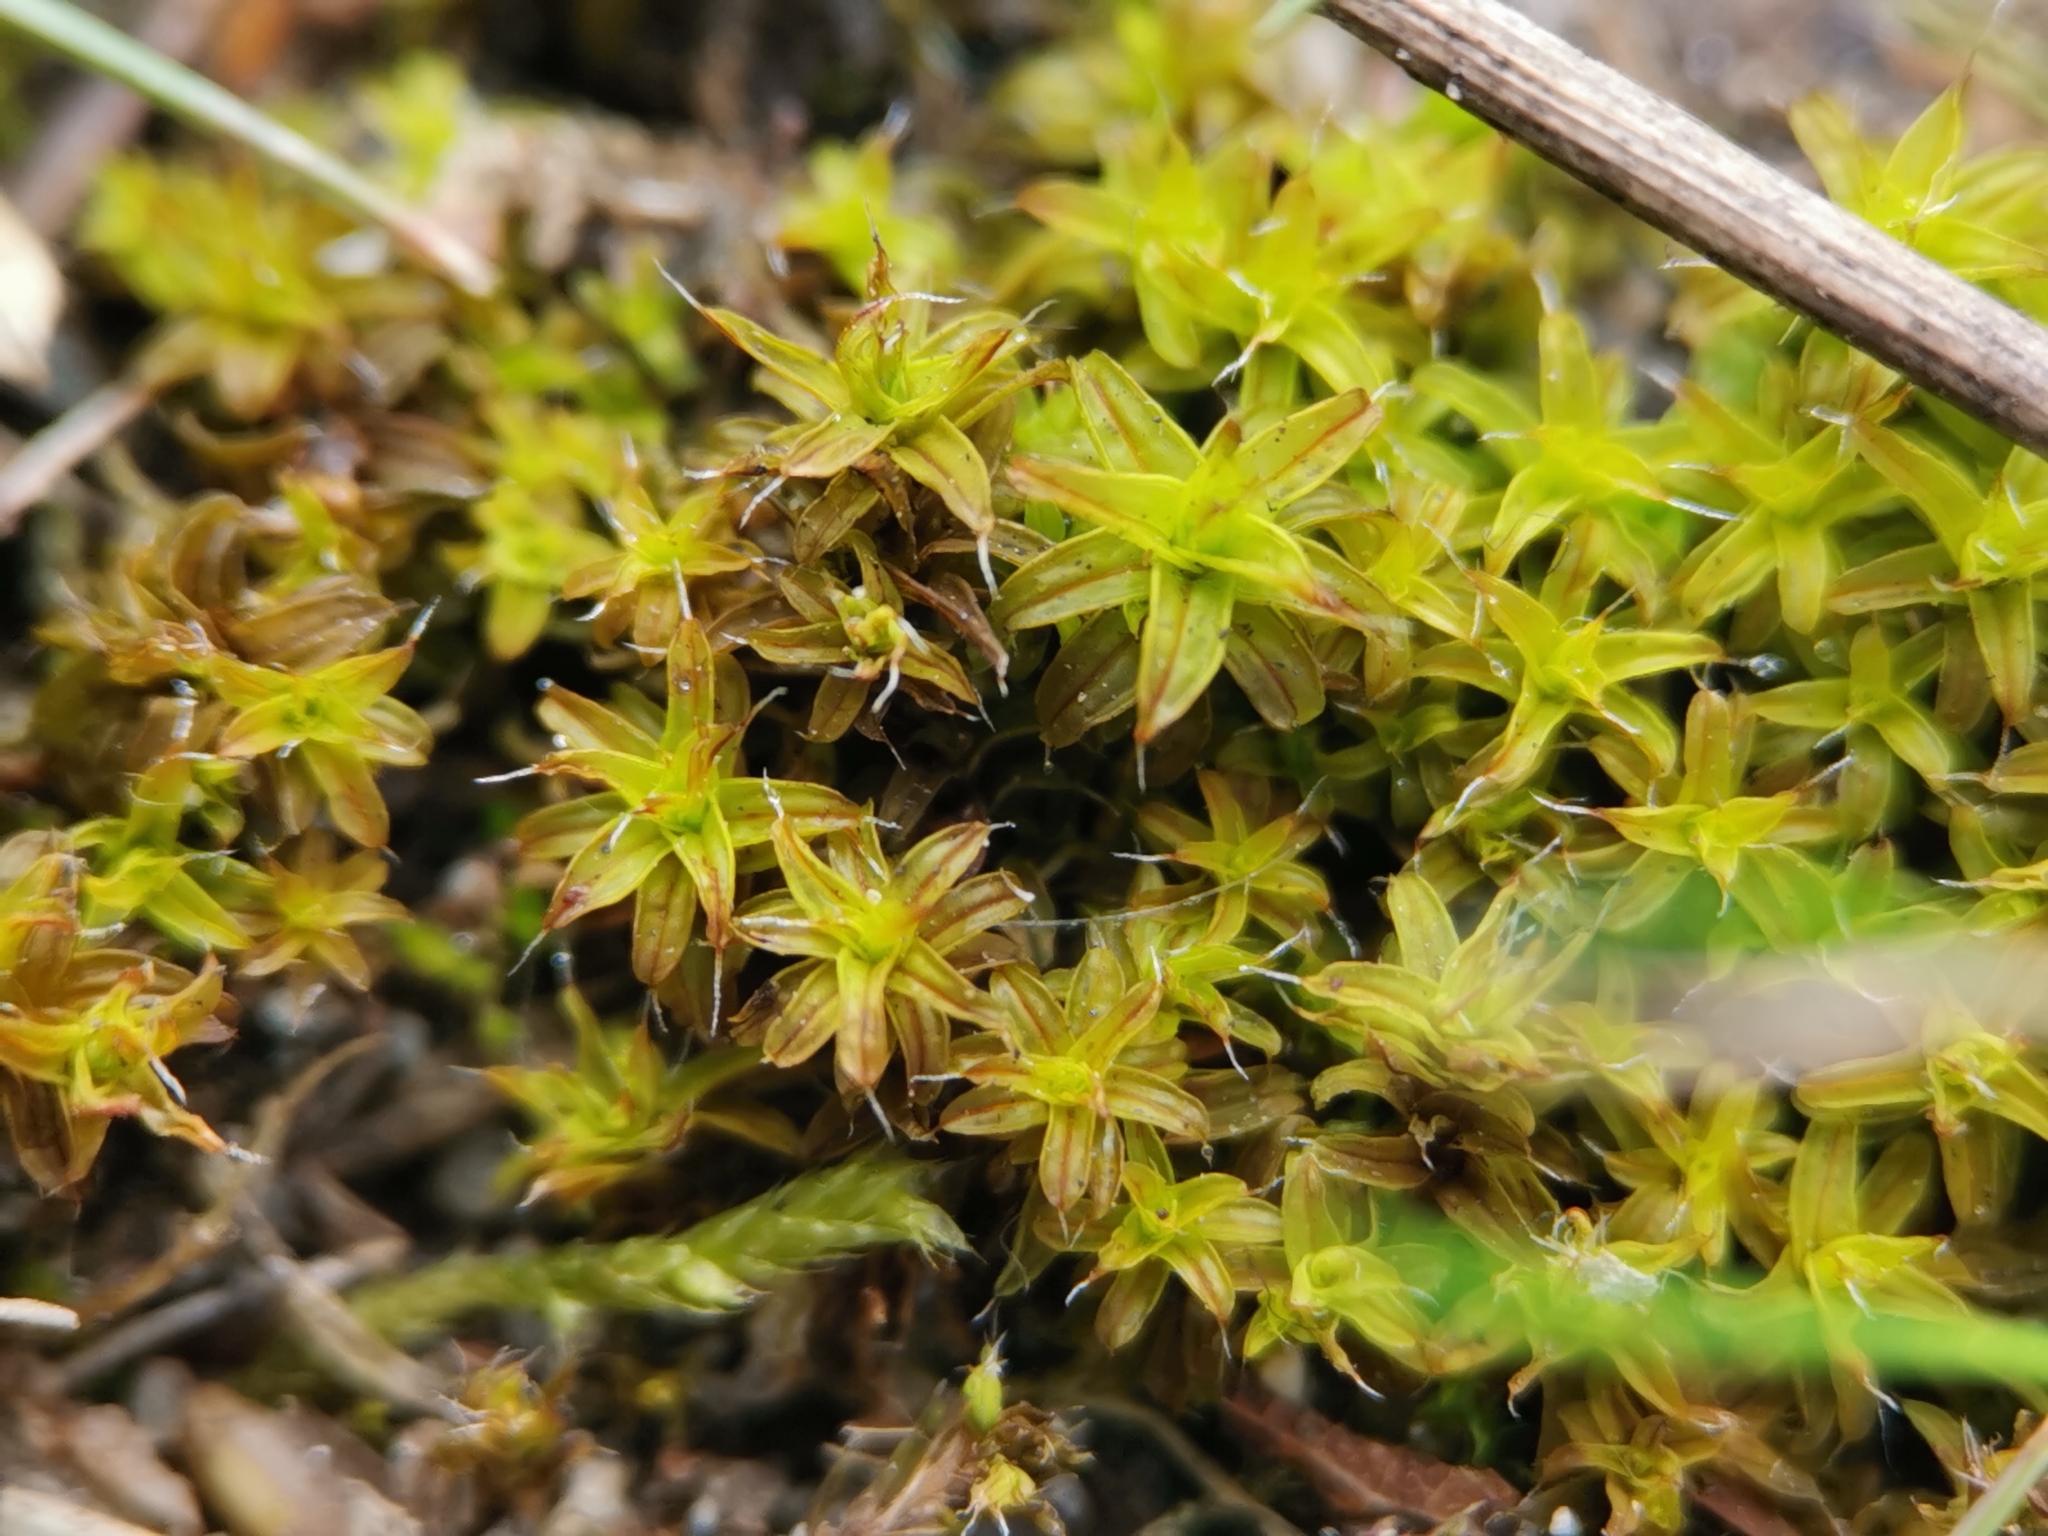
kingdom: Plantae
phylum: Bryophyta
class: Bryopsida
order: Pottiales
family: Pottiaceae
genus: Syntrichia
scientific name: Syntrichia ruralis
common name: Sidewalk screw moss
